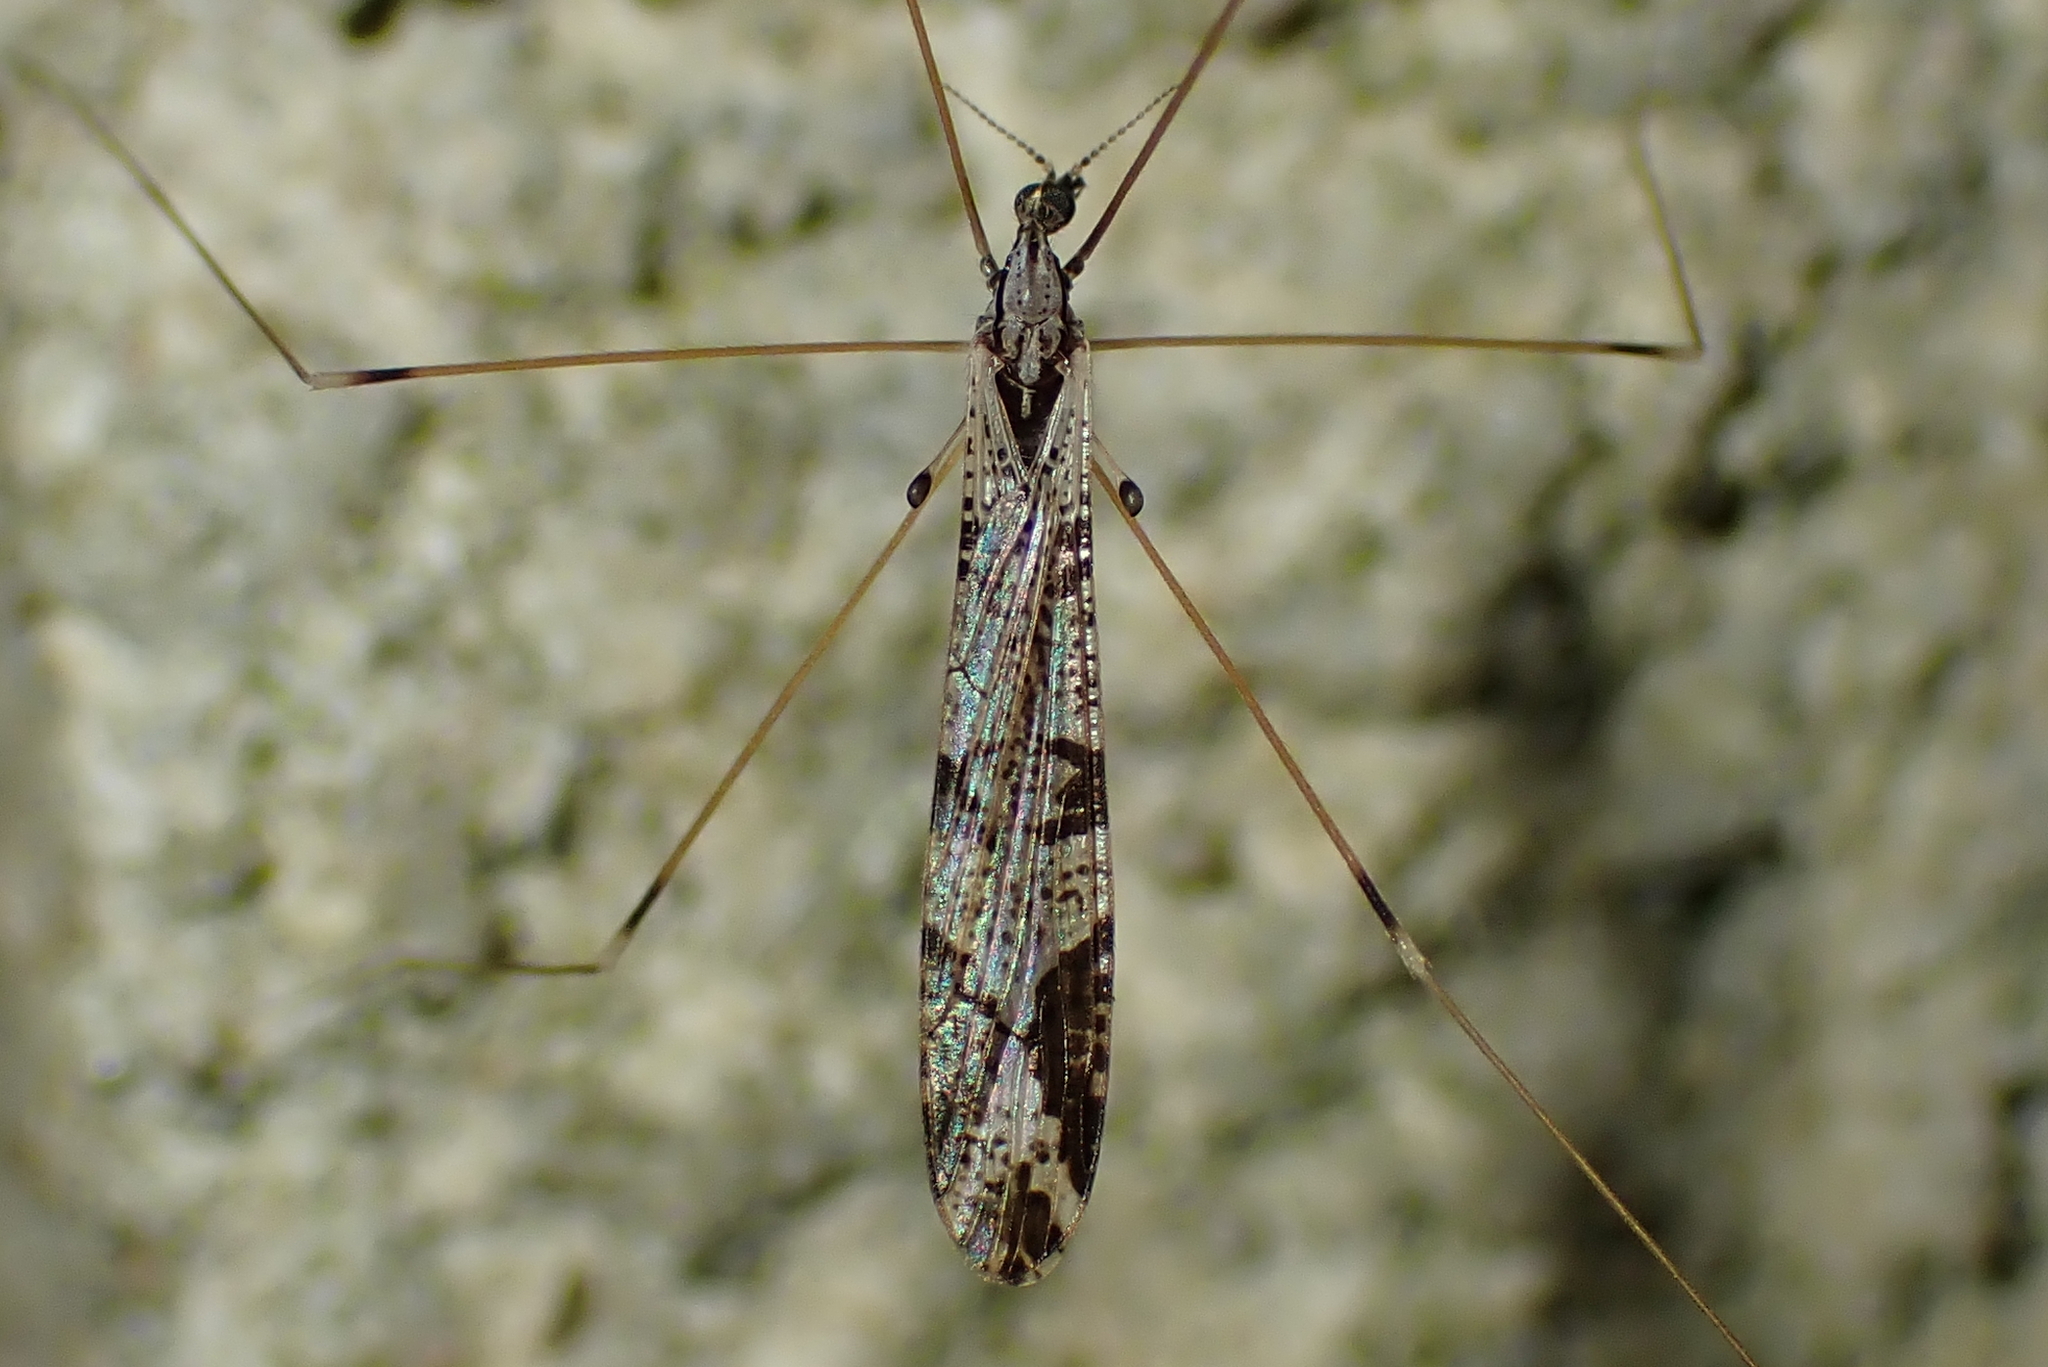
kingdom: Animalia
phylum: Arthropoda
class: Insecta
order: Diptera
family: Limoniidae
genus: Discobola
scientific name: Discobola striata
